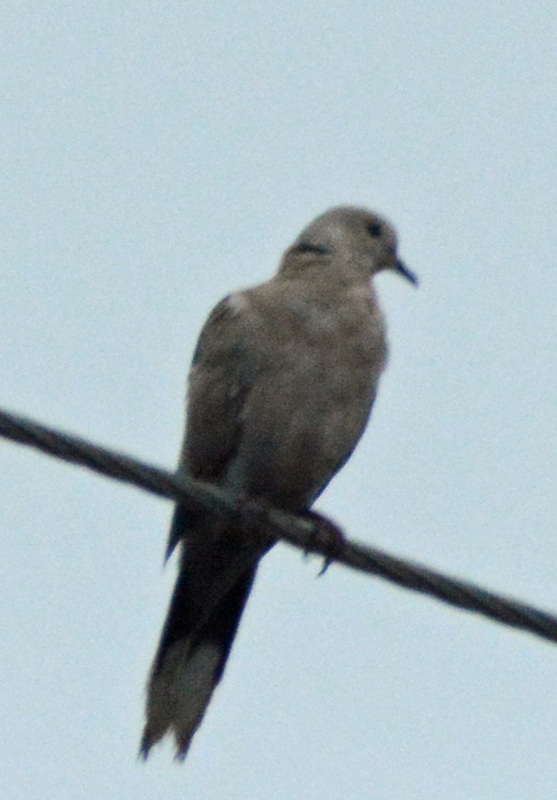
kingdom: Animalia
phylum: Chordata
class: Aves
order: Columbiformes
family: Columbidae
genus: Streptopelia
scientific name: Streptopelia decaocto
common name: Eurasian collared dove
